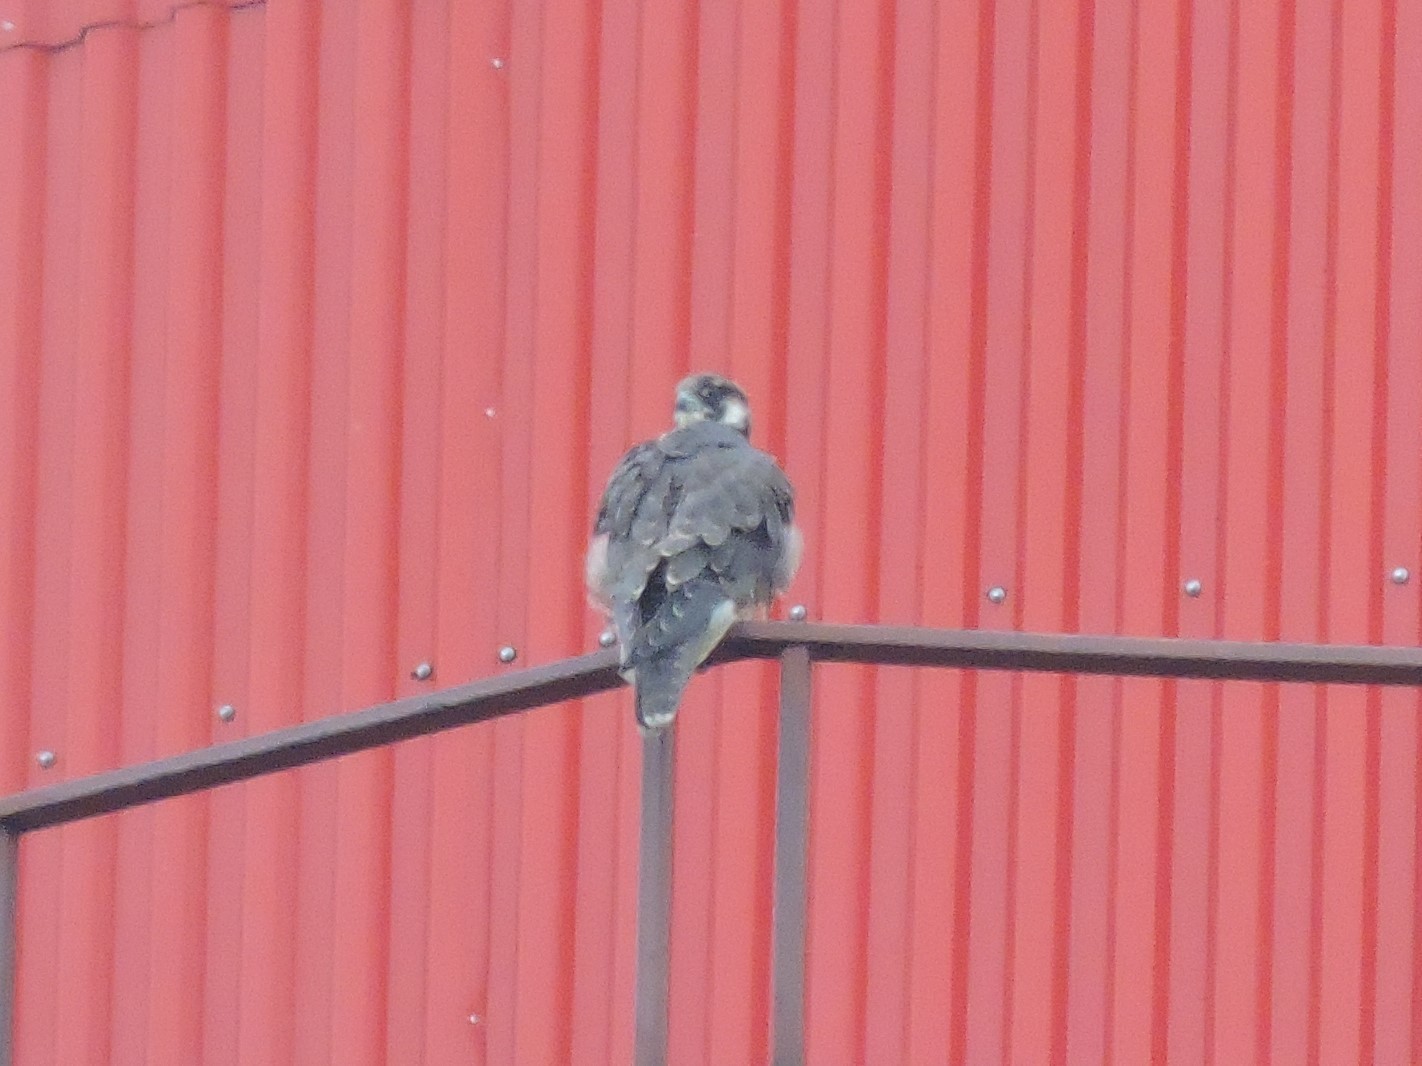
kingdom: Animalia
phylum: Chordata
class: Aves
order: Falconiformes
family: Falconidae
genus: Falco
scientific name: Falco peregrinus
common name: Peregrine falcon
